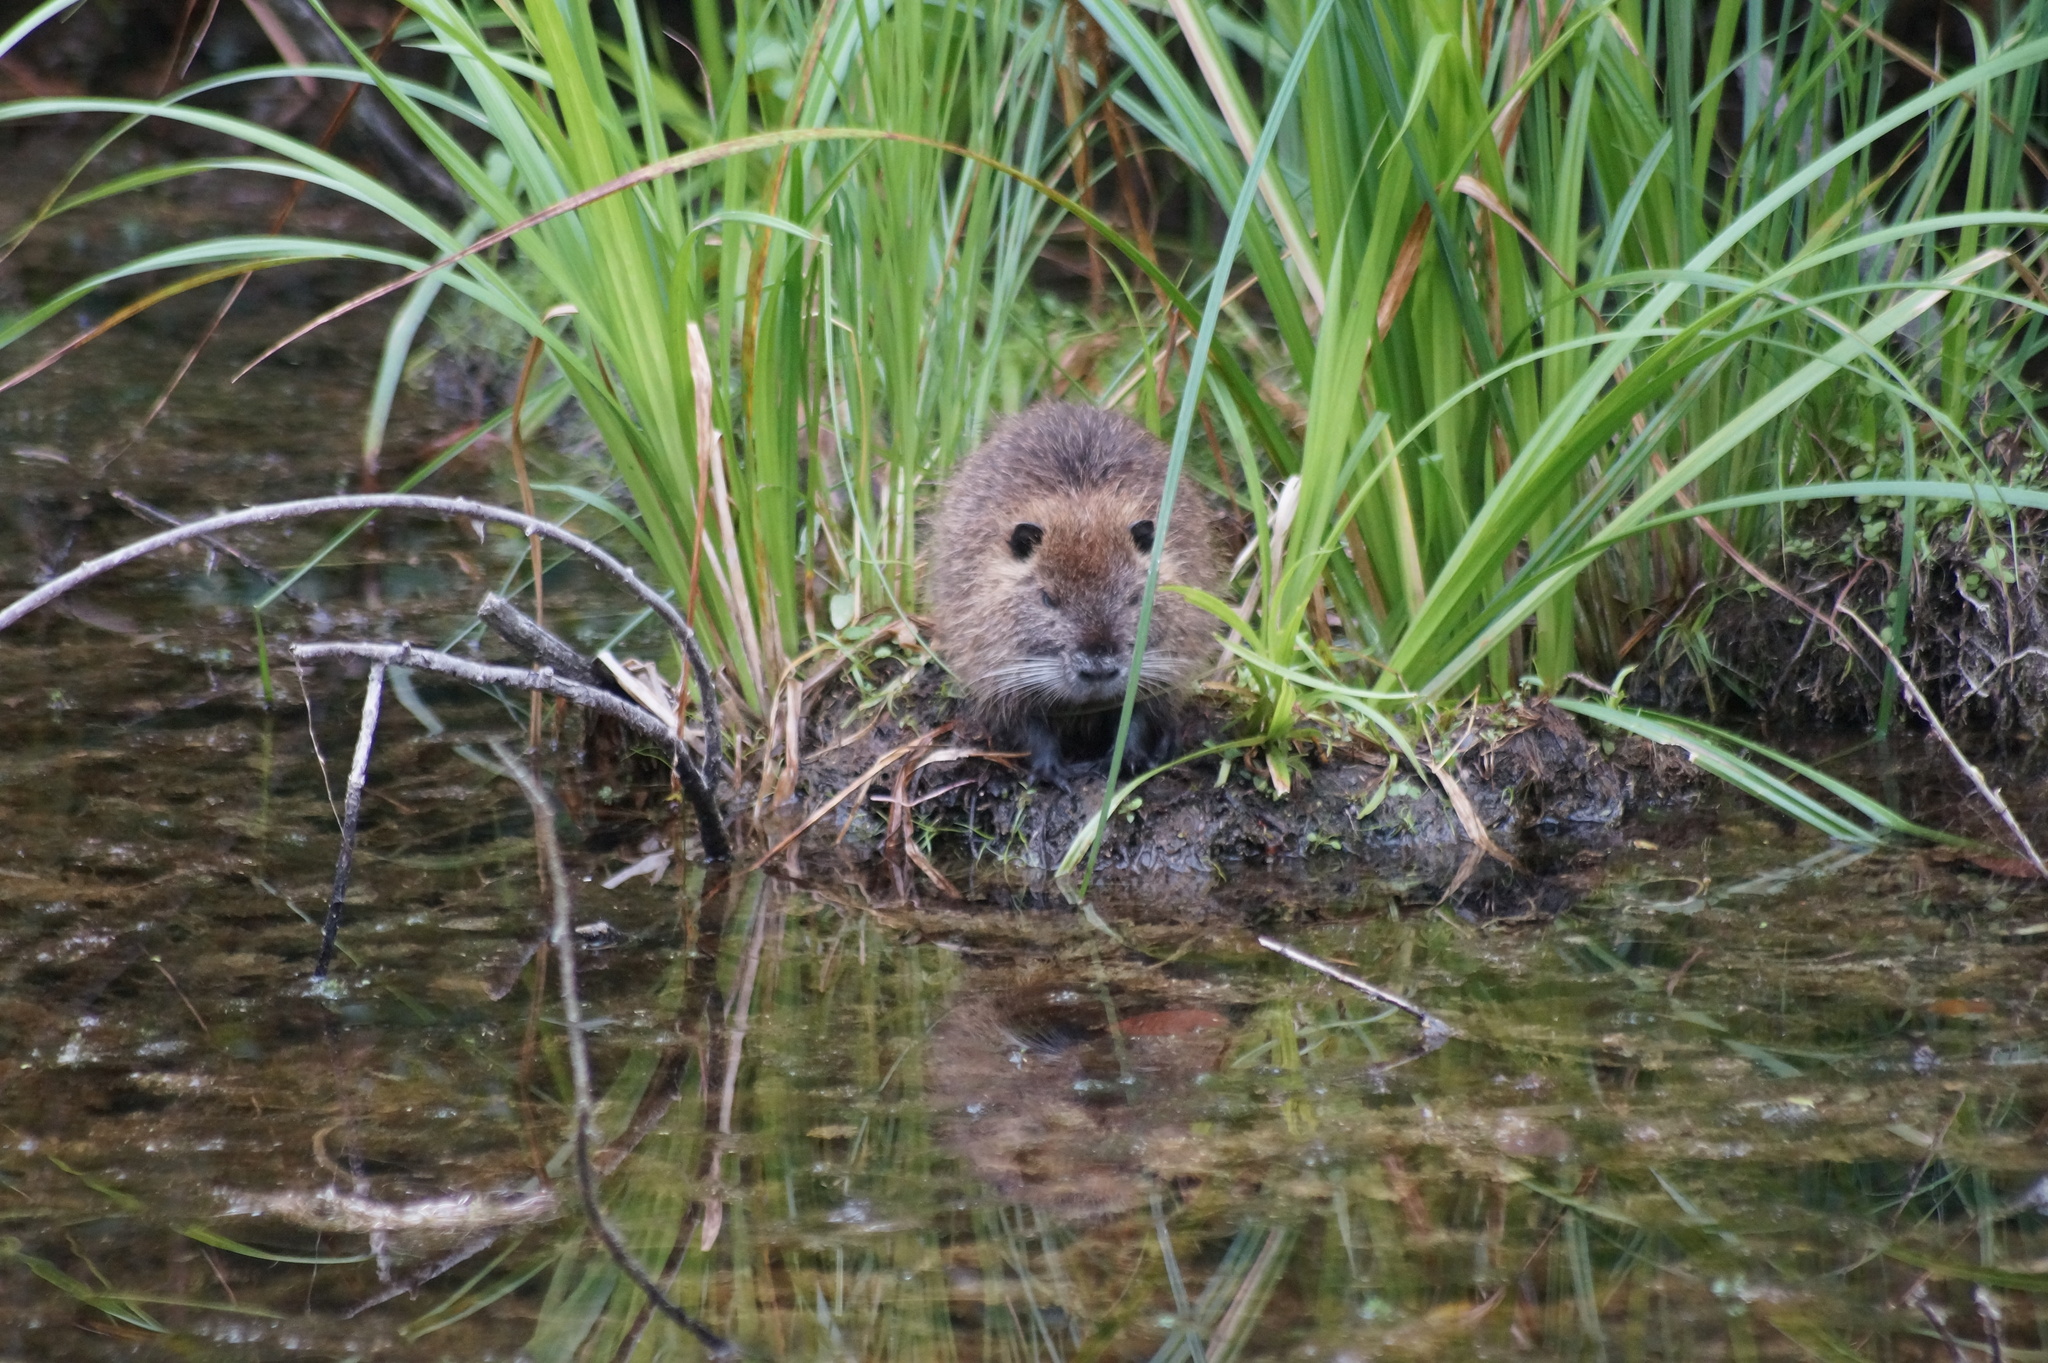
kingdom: Animalia
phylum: Chordata
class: Mammalia
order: Rodentia
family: Myocastoridae
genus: Myocastor
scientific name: Myocastor coypus
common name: Coypu
